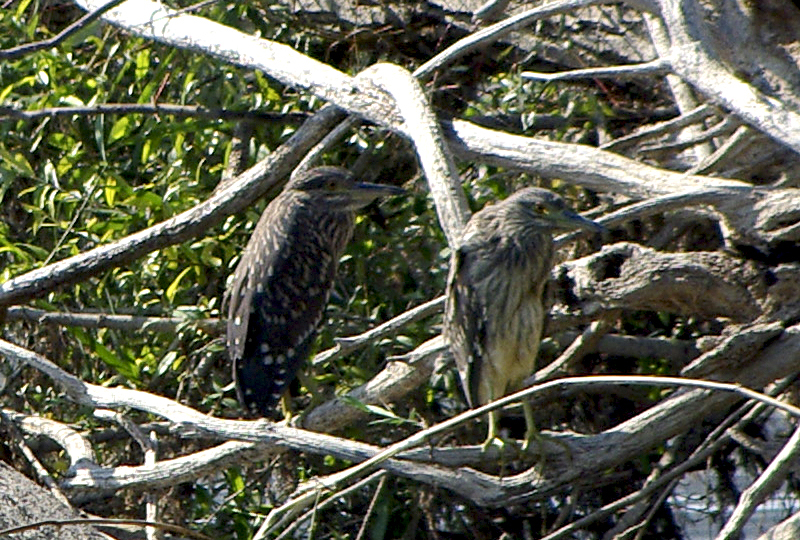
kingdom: Animalia
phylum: Chordata
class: Aves
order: Pelecaniformes
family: Ardeidae
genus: Nycticorax
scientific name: Nycticorax nycticorax
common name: Black-crowned night heron
